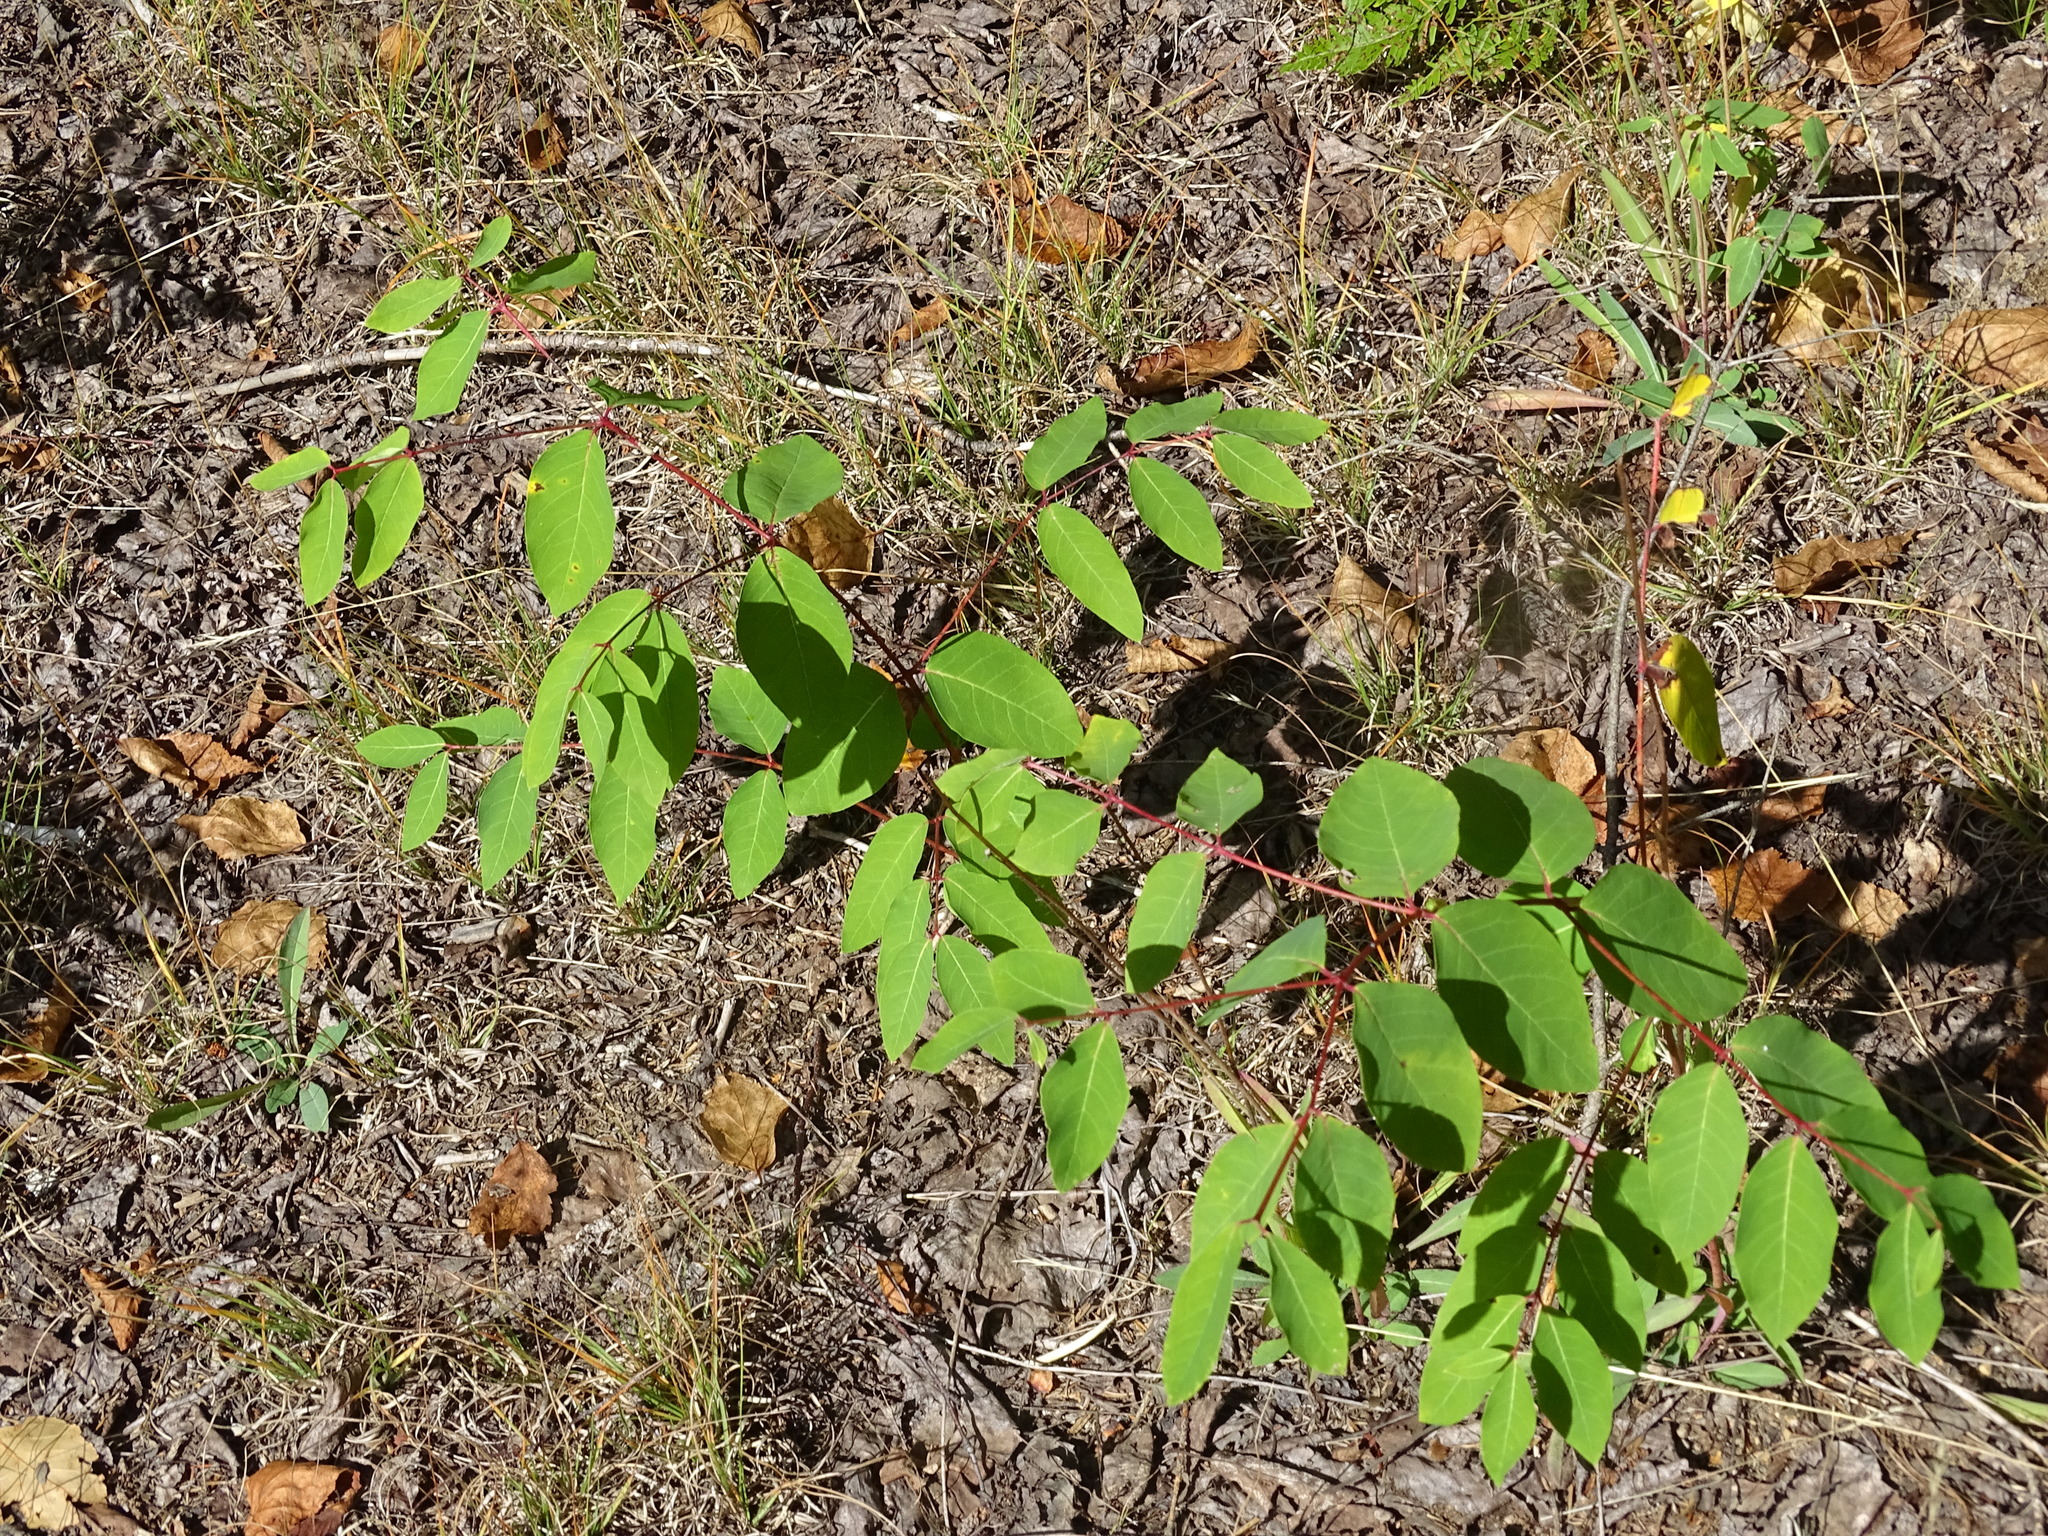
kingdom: Plantae
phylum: Tracheophyta
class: Magnoliopsida
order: Gentianales
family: Apocynaceae
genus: Apocynum
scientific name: Apocynum androsaemifolium
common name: Spreading dogbane
